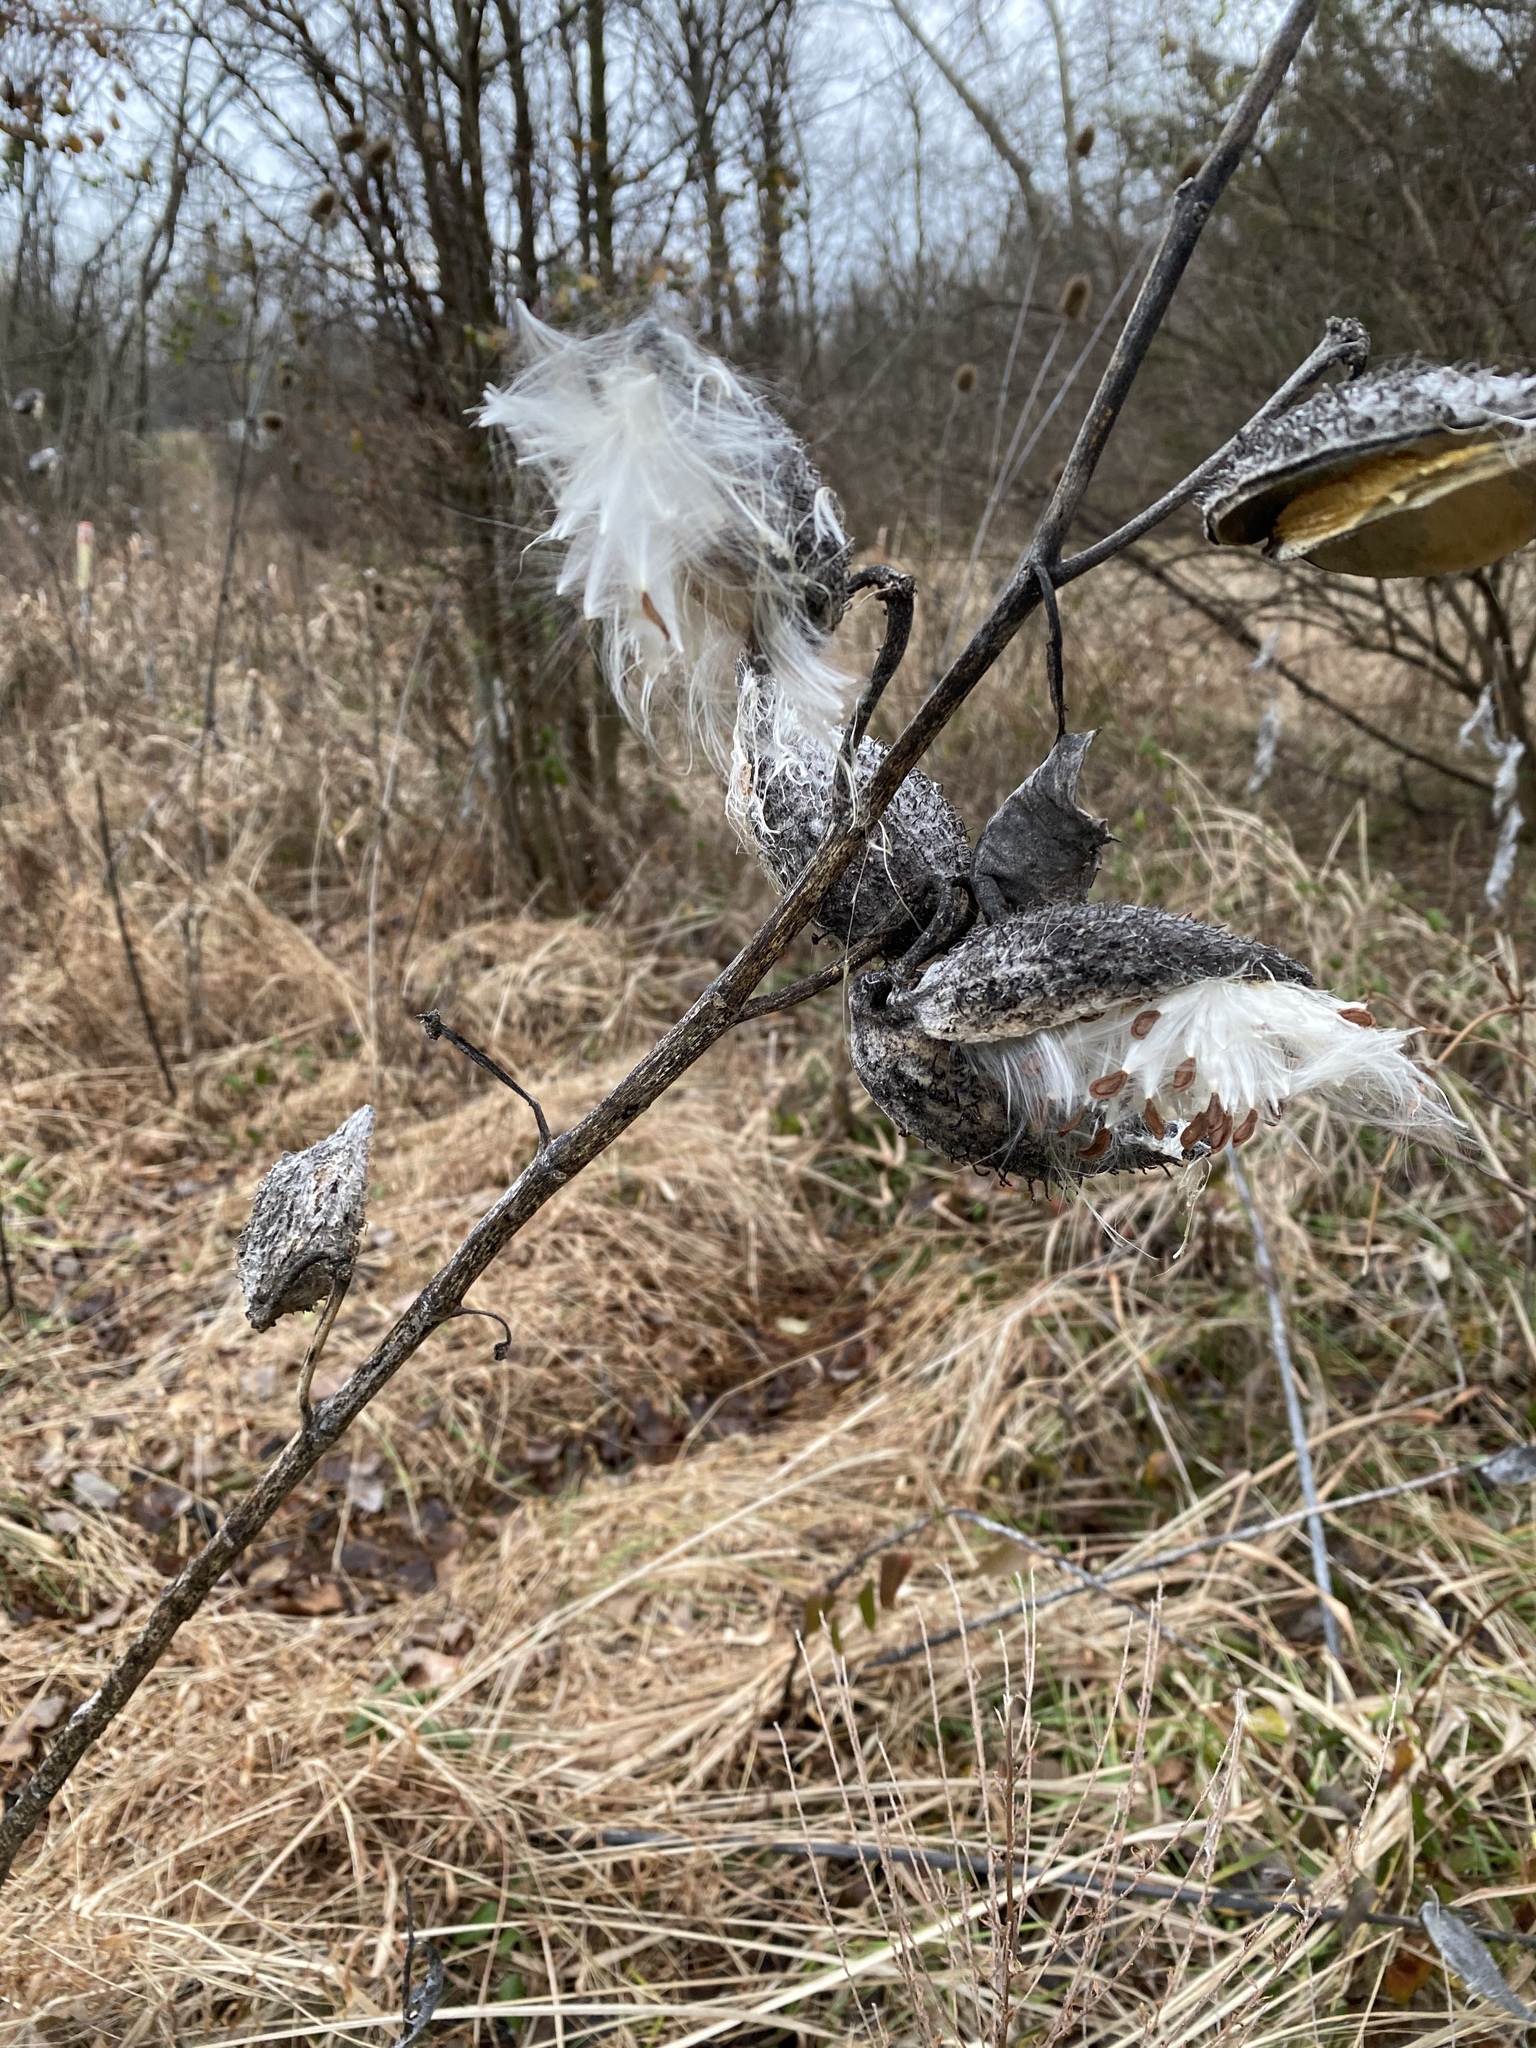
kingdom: Plantae
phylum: Tracheophyta
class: Magnoliopsida
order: Gentianales
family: Apocynaceae
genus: Asclepias
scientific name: Asclepias syriaca
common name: Common milkweed
